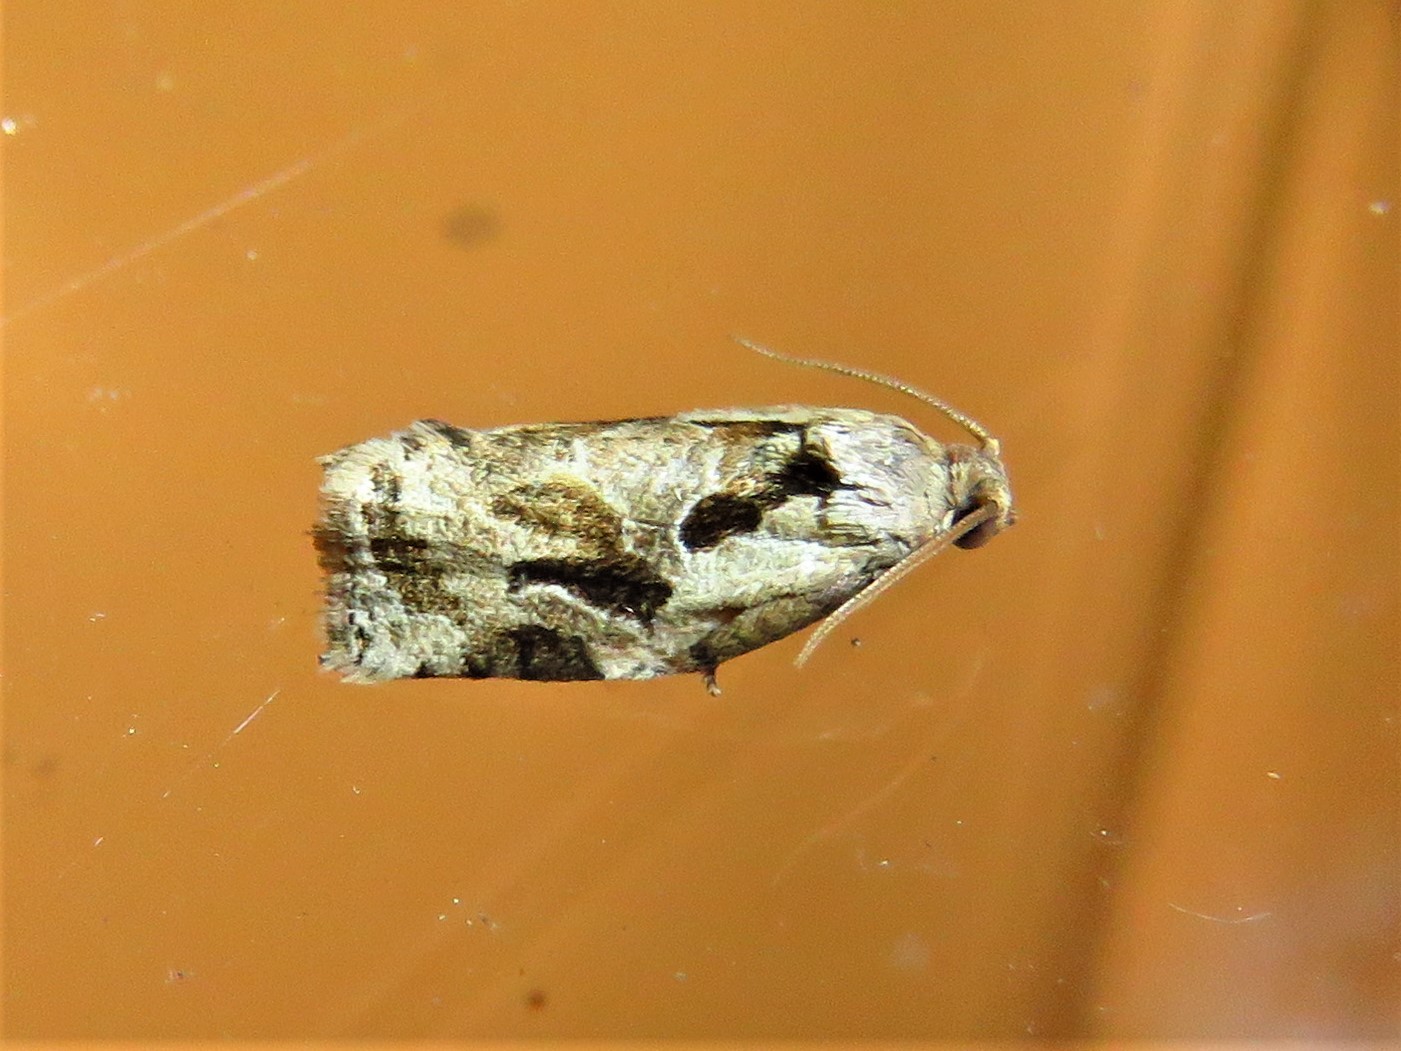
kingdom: Animalia
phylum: Arthropoda
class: Insecta
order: Lepidoptera
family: Tortricidae
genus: Archips
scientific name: Archips grisea
